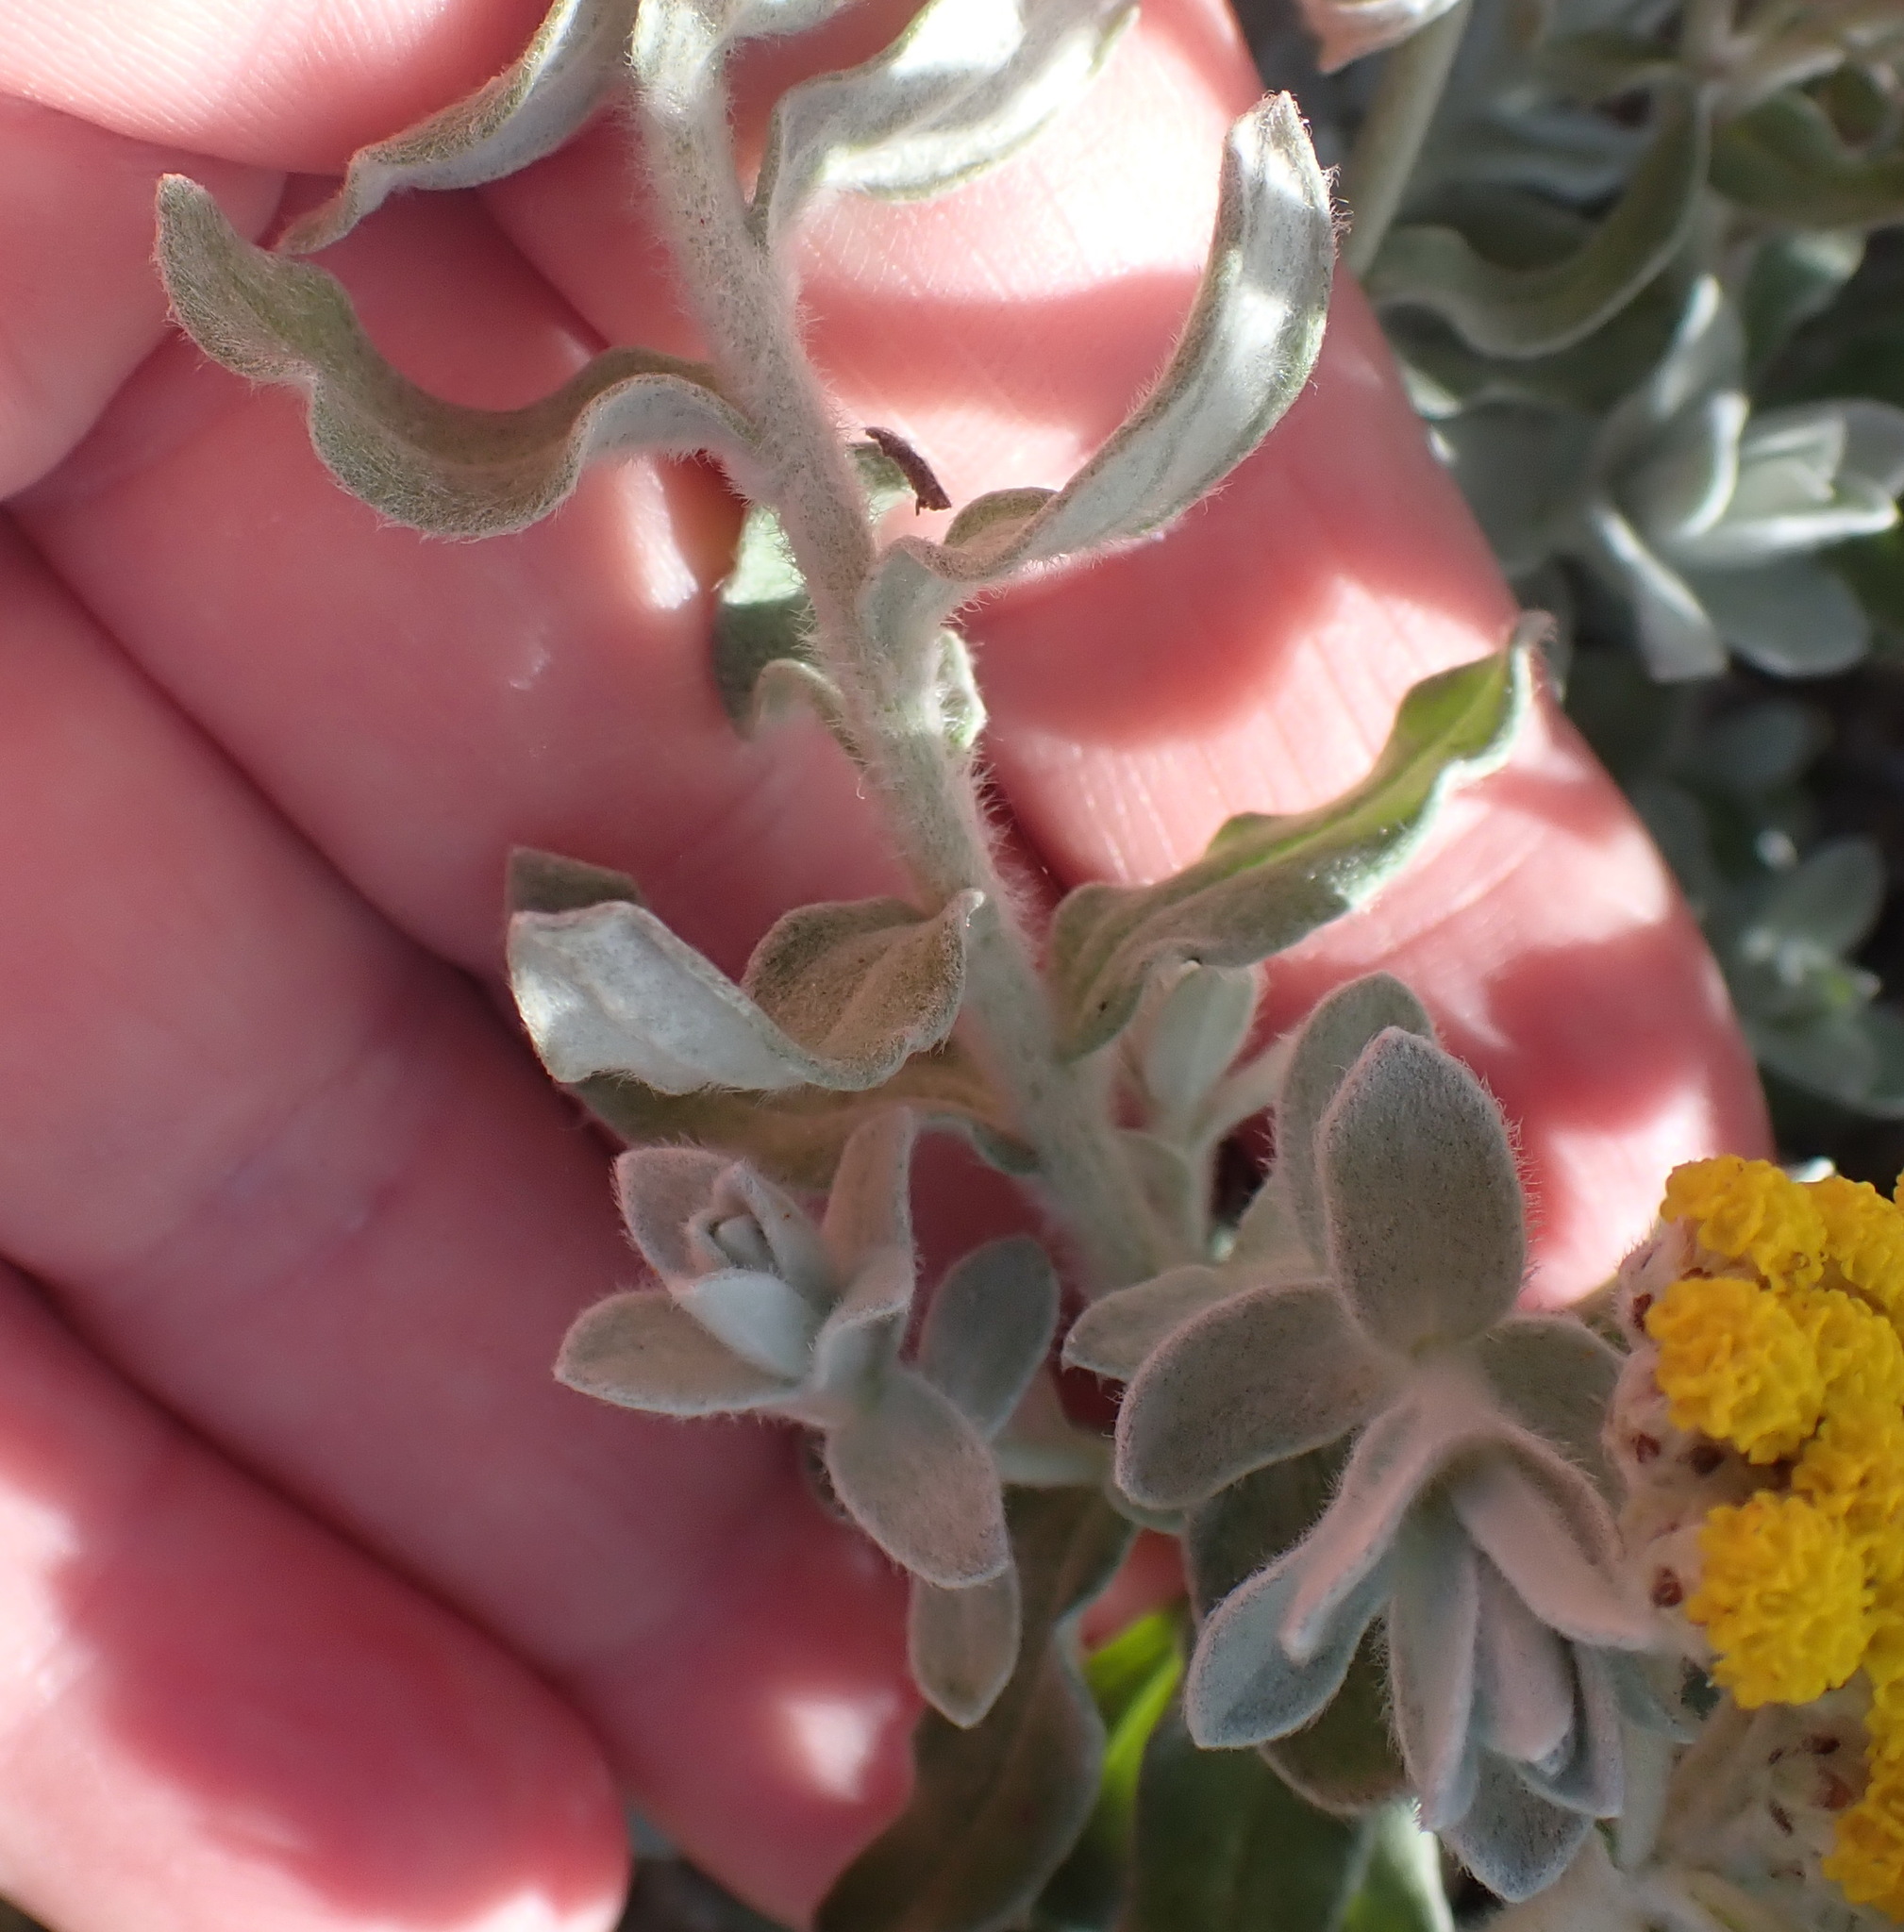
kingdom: Plantae
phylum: Tracheophyta
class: Magnoliopsida
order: Asterales
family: Asteraceae
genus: Helichrysum
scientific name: Helichrysum dasyanthum
